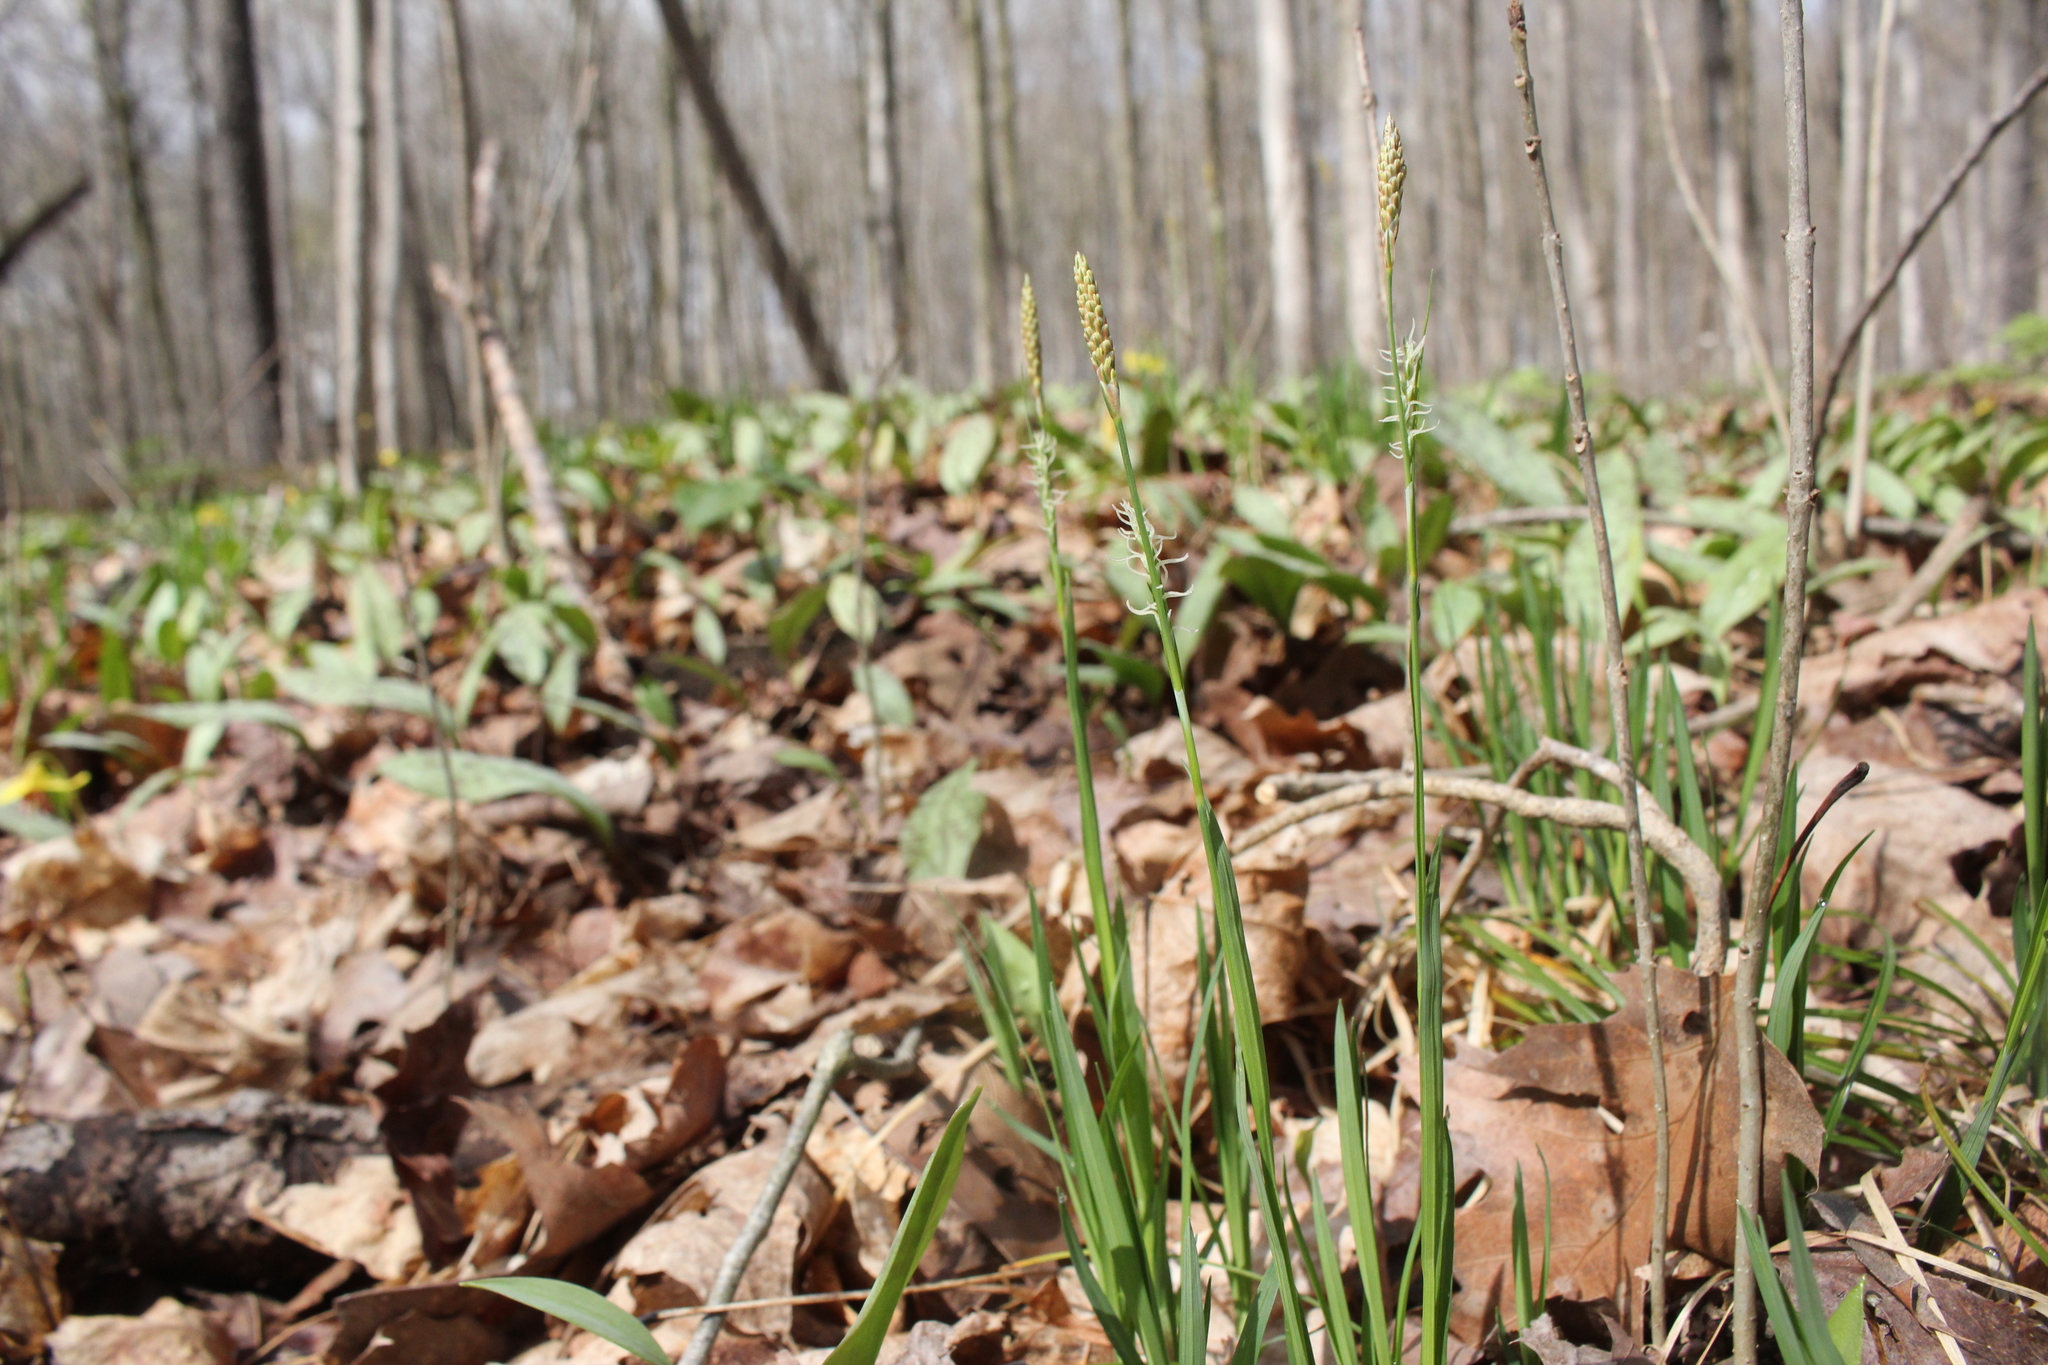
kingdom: Plantae
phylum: Tracheophyta
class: Liliopsida
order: Poales
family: Cyperaceae
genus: Carex
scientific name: Carex woodii
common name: Wood's sedge
